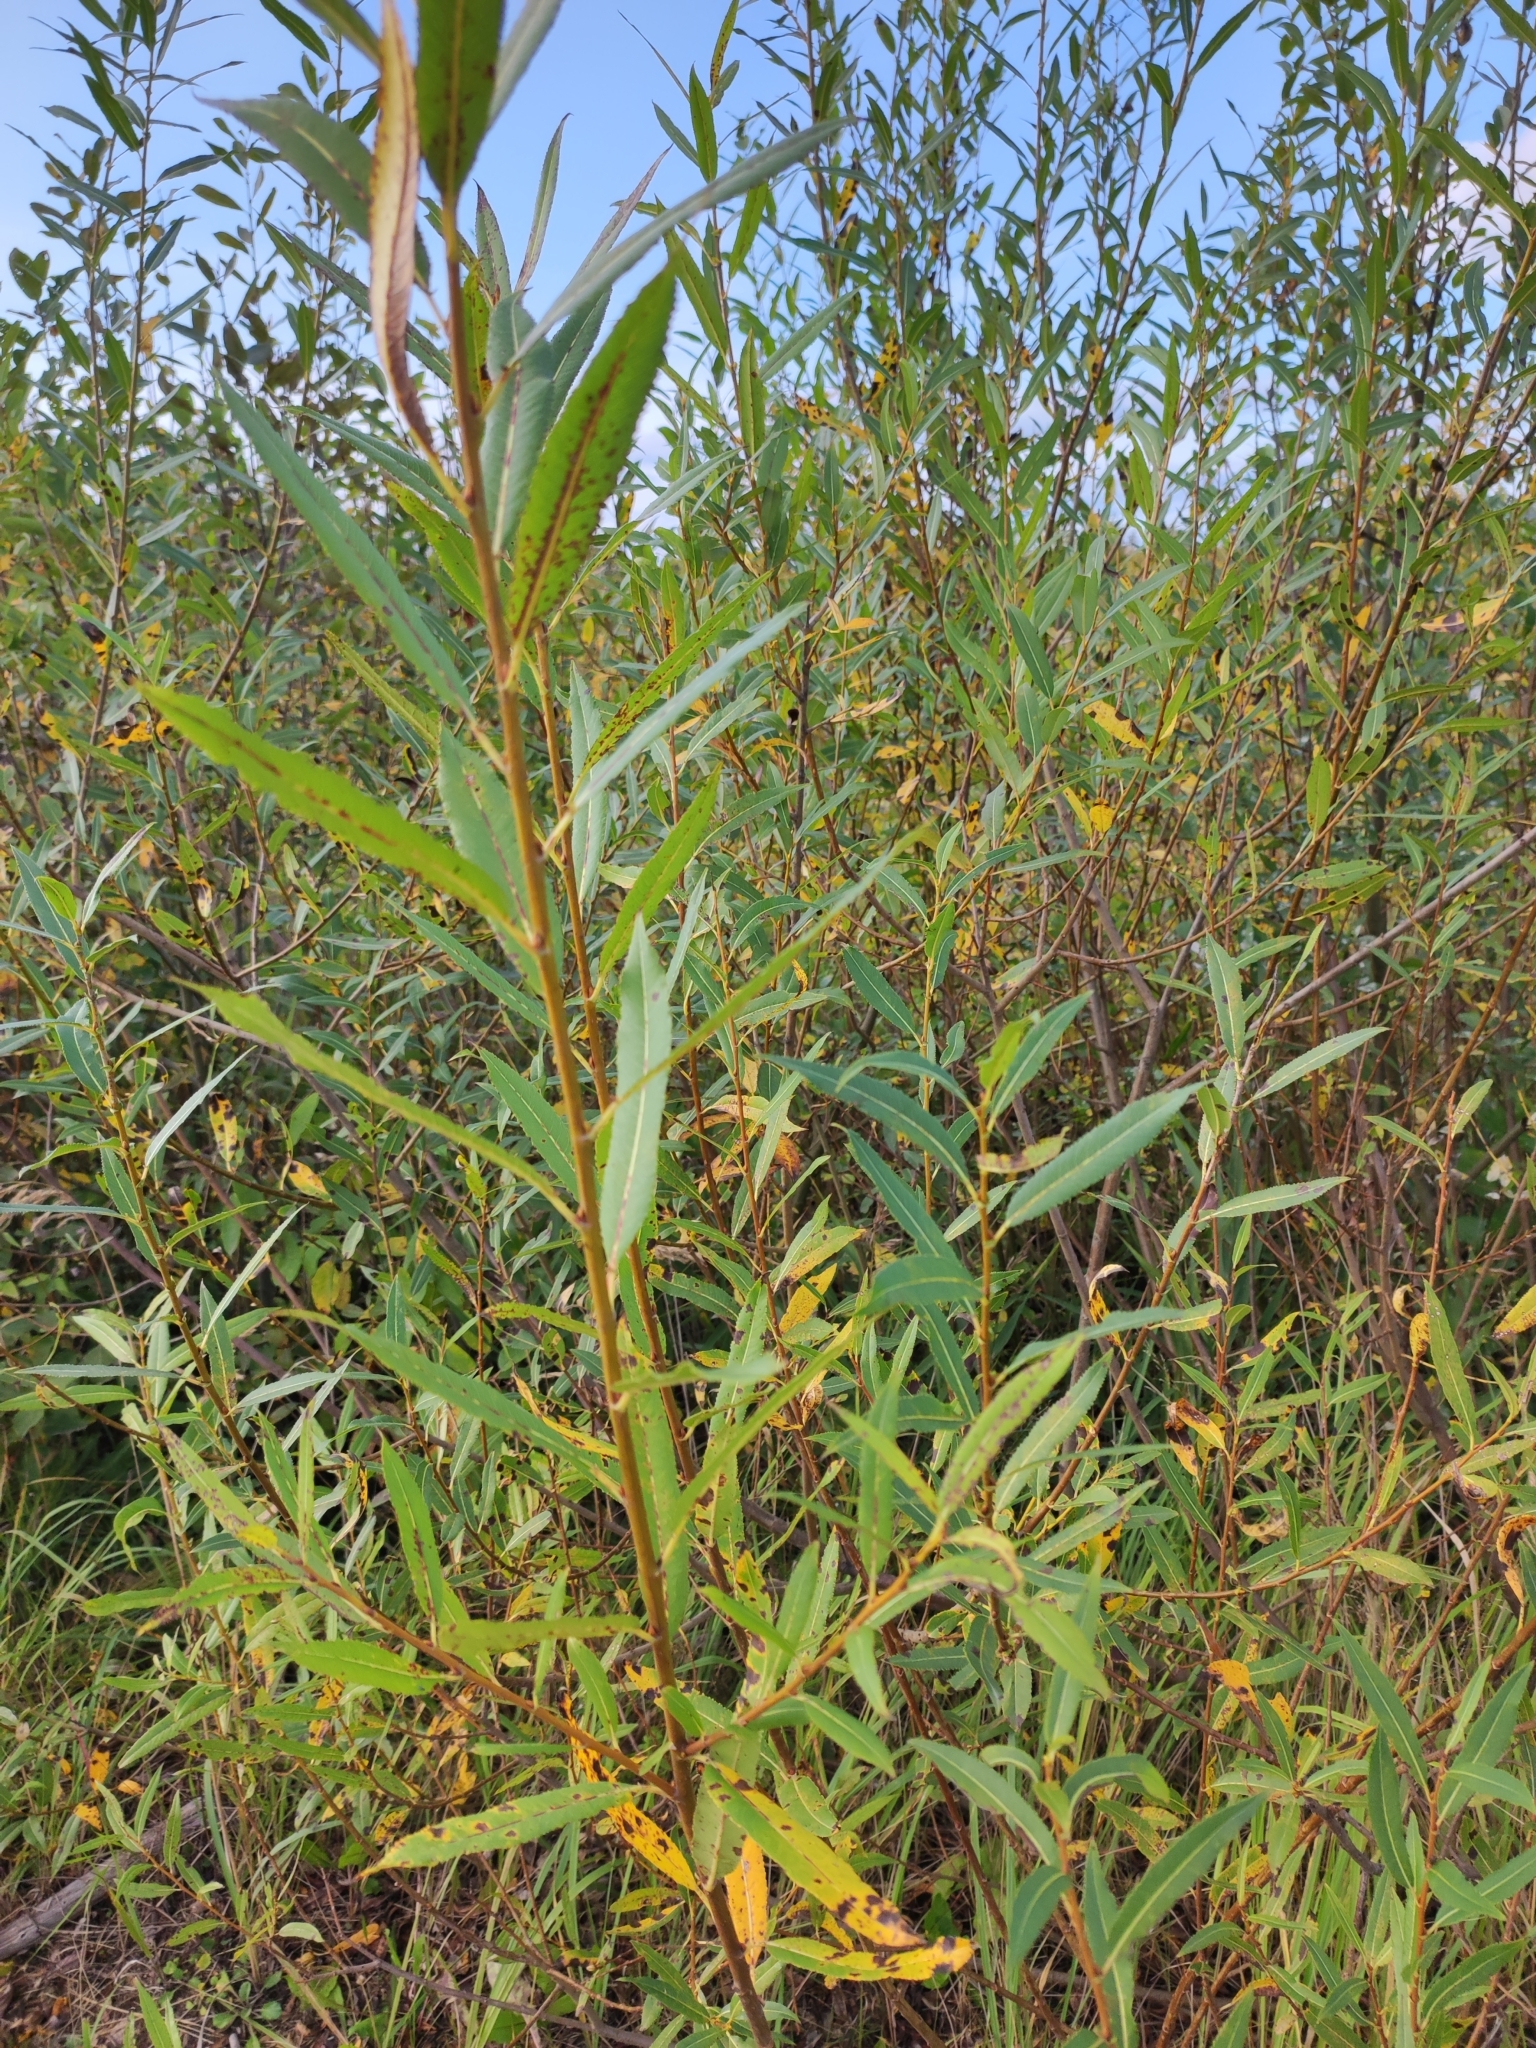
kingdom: Plantae
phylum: Tracheophyta
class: Magnoliopsida
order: Malpighiales
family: Salicaceae
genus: Salix
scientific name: Salix triandra
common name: Almond willow
